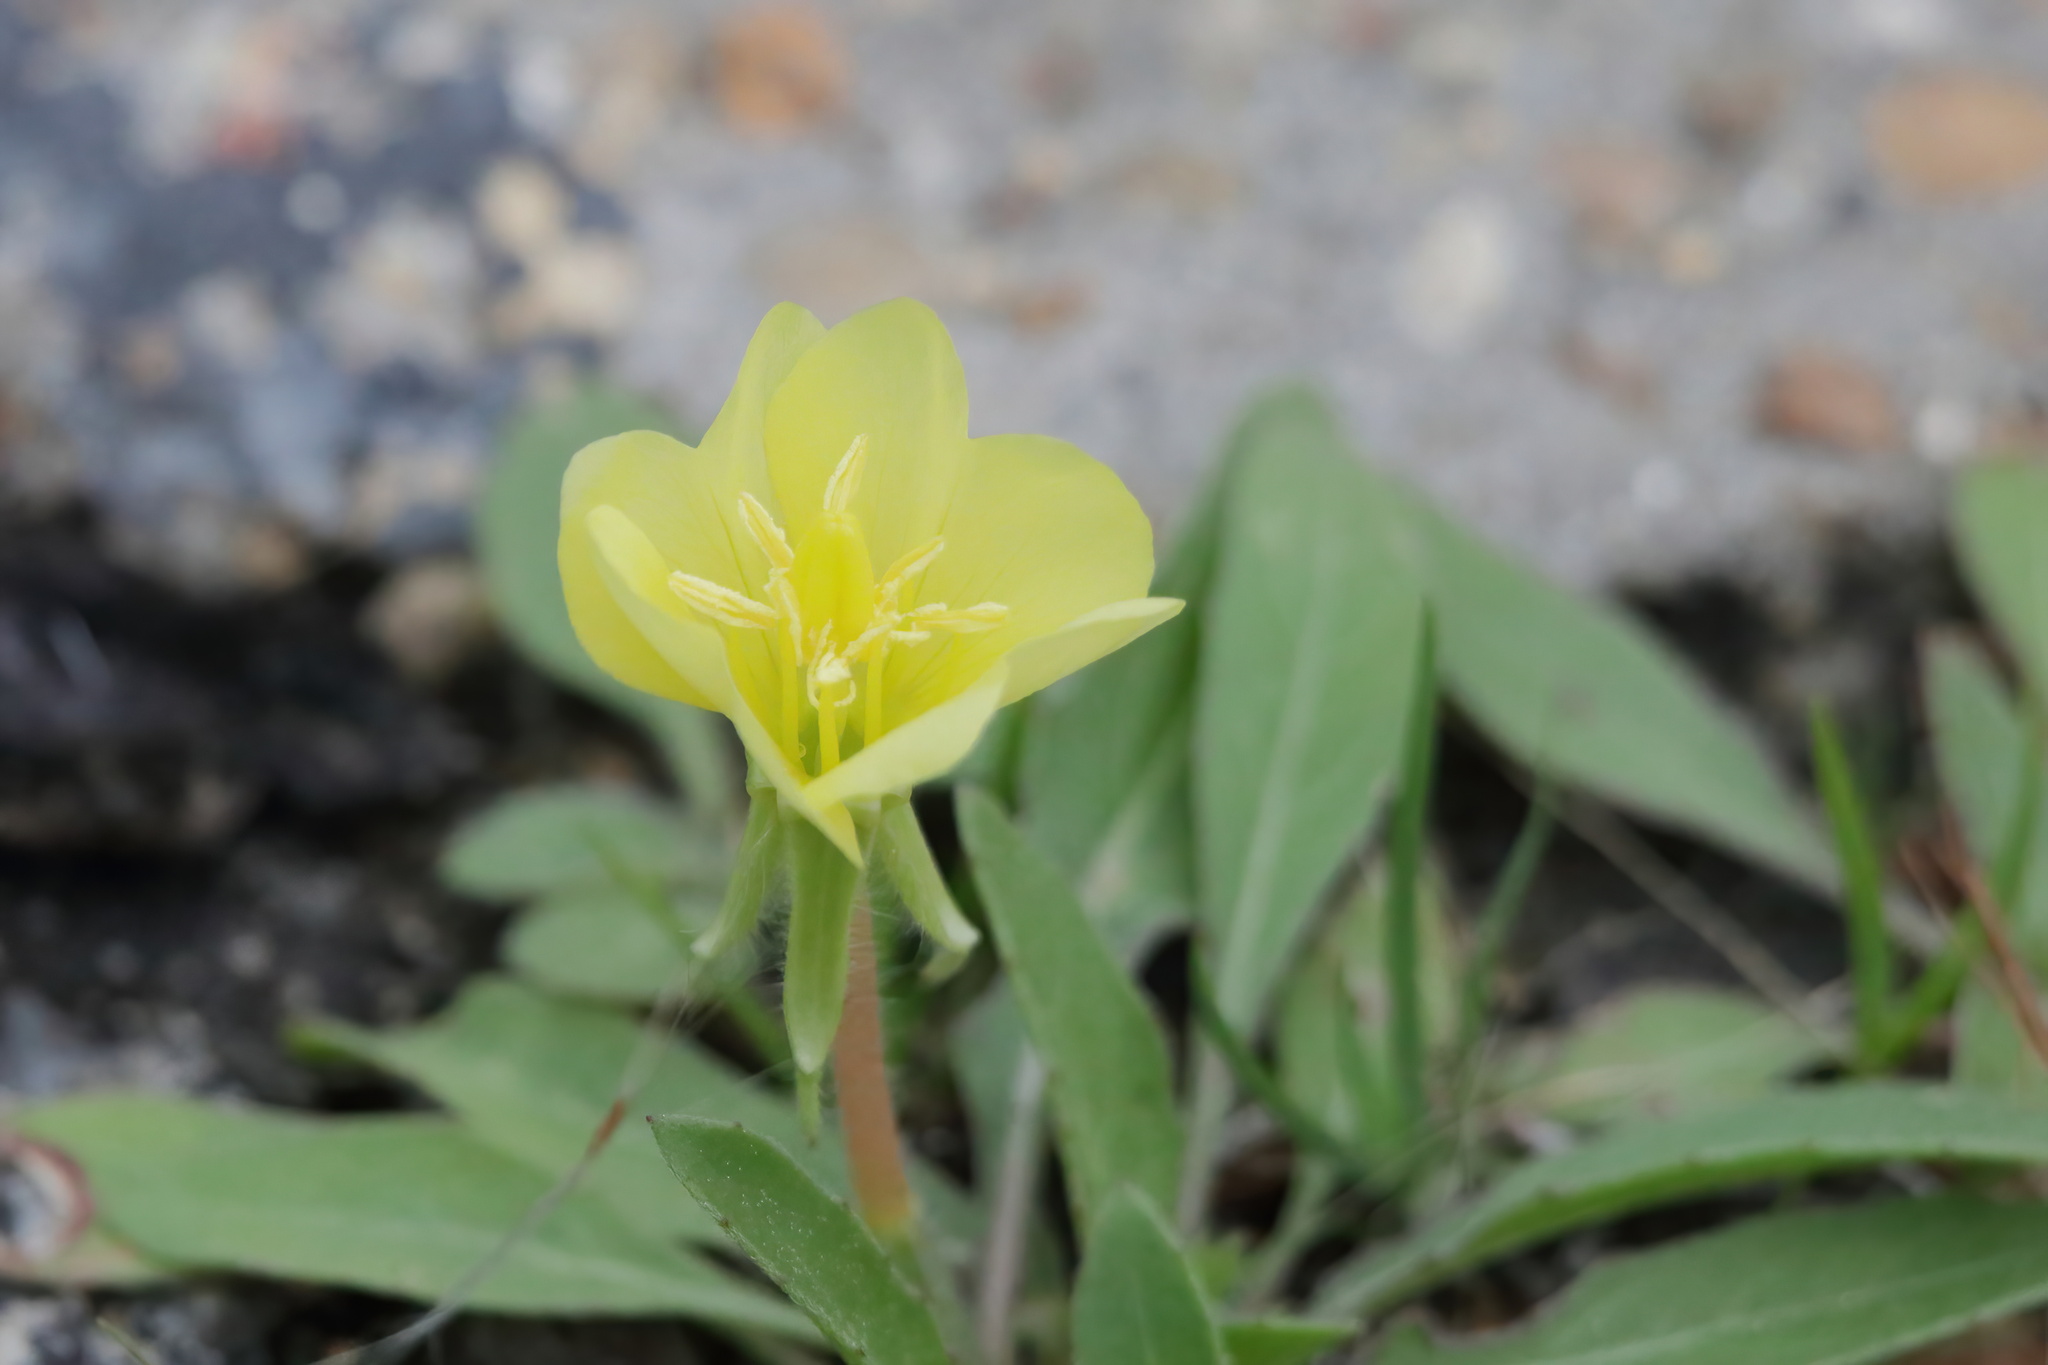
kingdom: Plantae
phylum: Tracheophyta
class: Magnoliopsida
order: Myrtales
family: Onagraceae
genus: Oenothera
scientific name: Oenothera laciniata
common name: Cut-leaved evening-primrose
